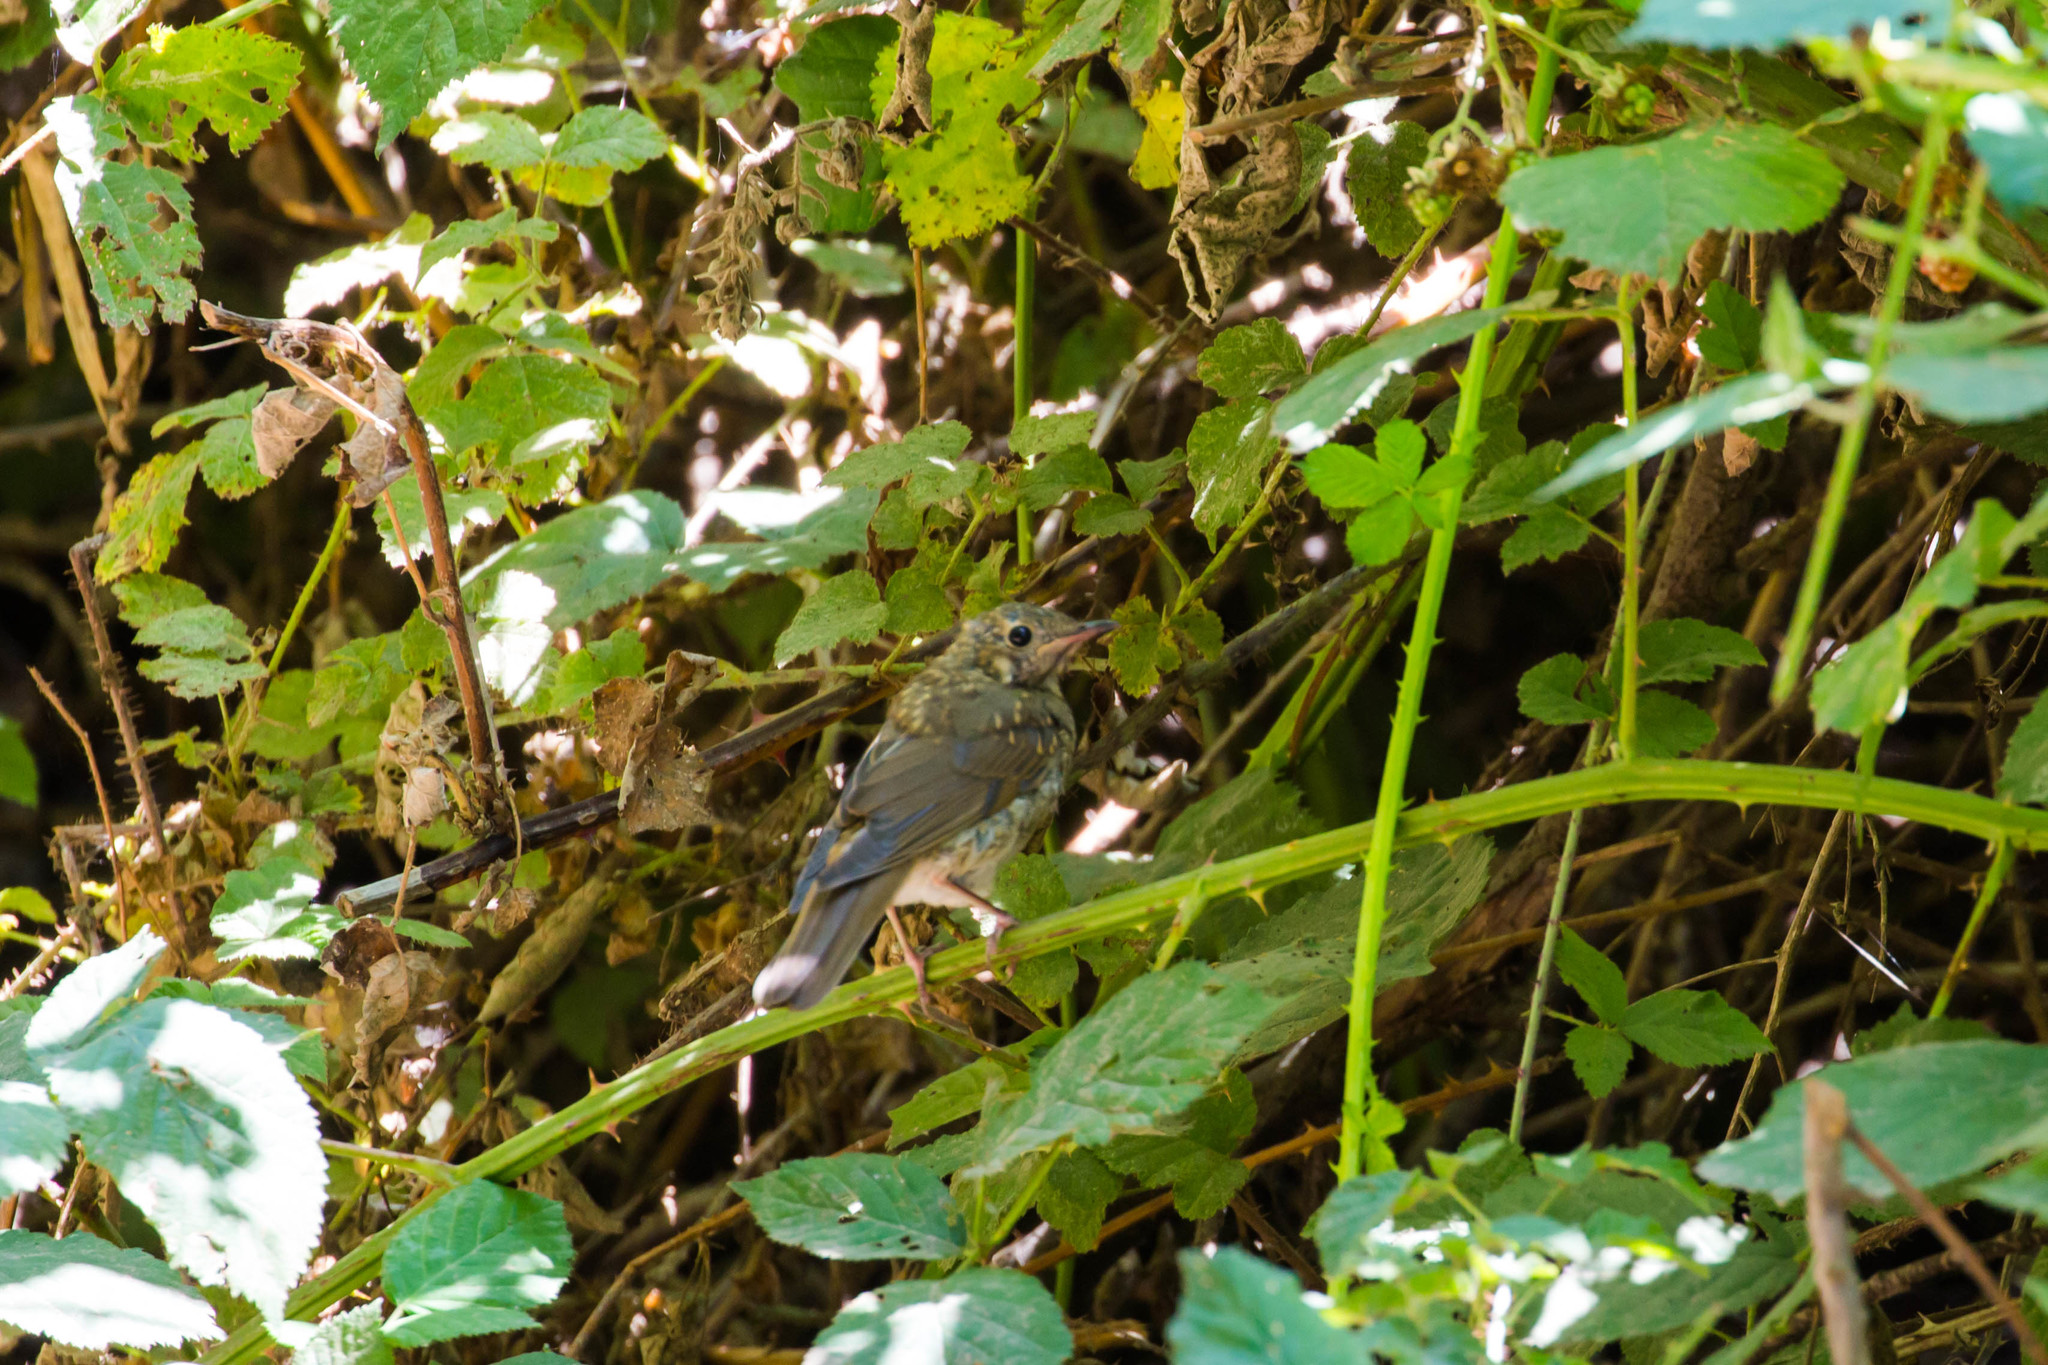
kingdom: Animalia
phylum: Chordata
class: Aves
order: Passeriformes
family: Turdidae
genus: Sialia
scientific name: Sialia mexicana
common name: Western bluebird
